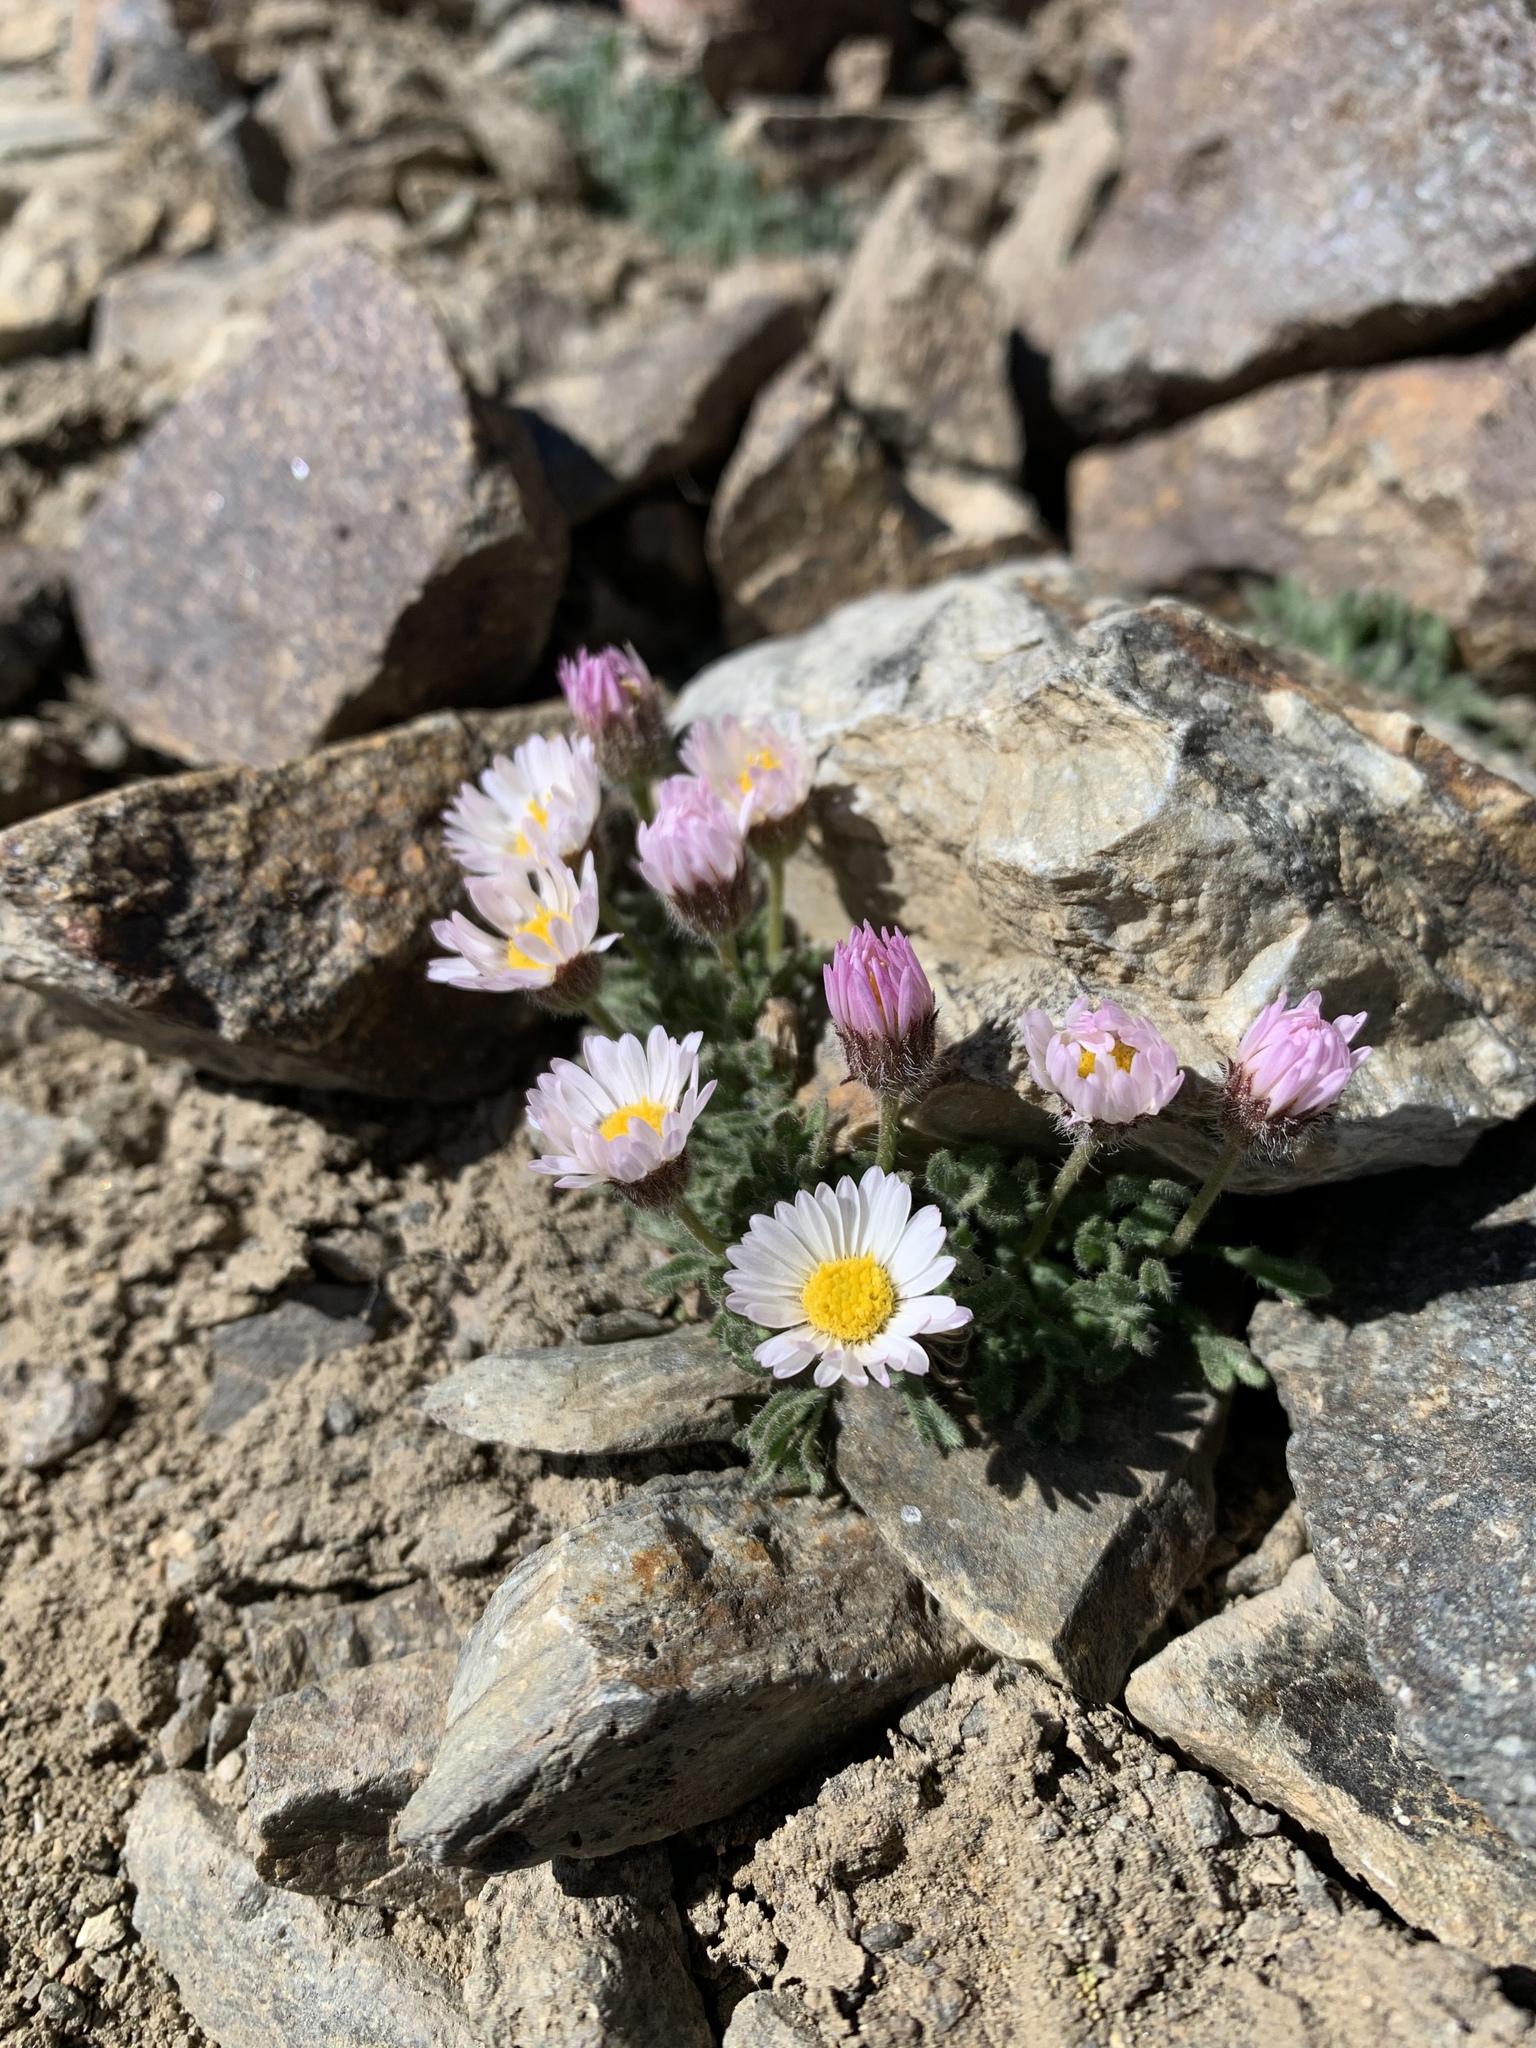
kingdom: Plantae
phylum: Tracheophyta
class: Magnoliopsida
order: Asterales
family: Asteraceae
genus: Erigeron
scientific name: Erigeron vagus
